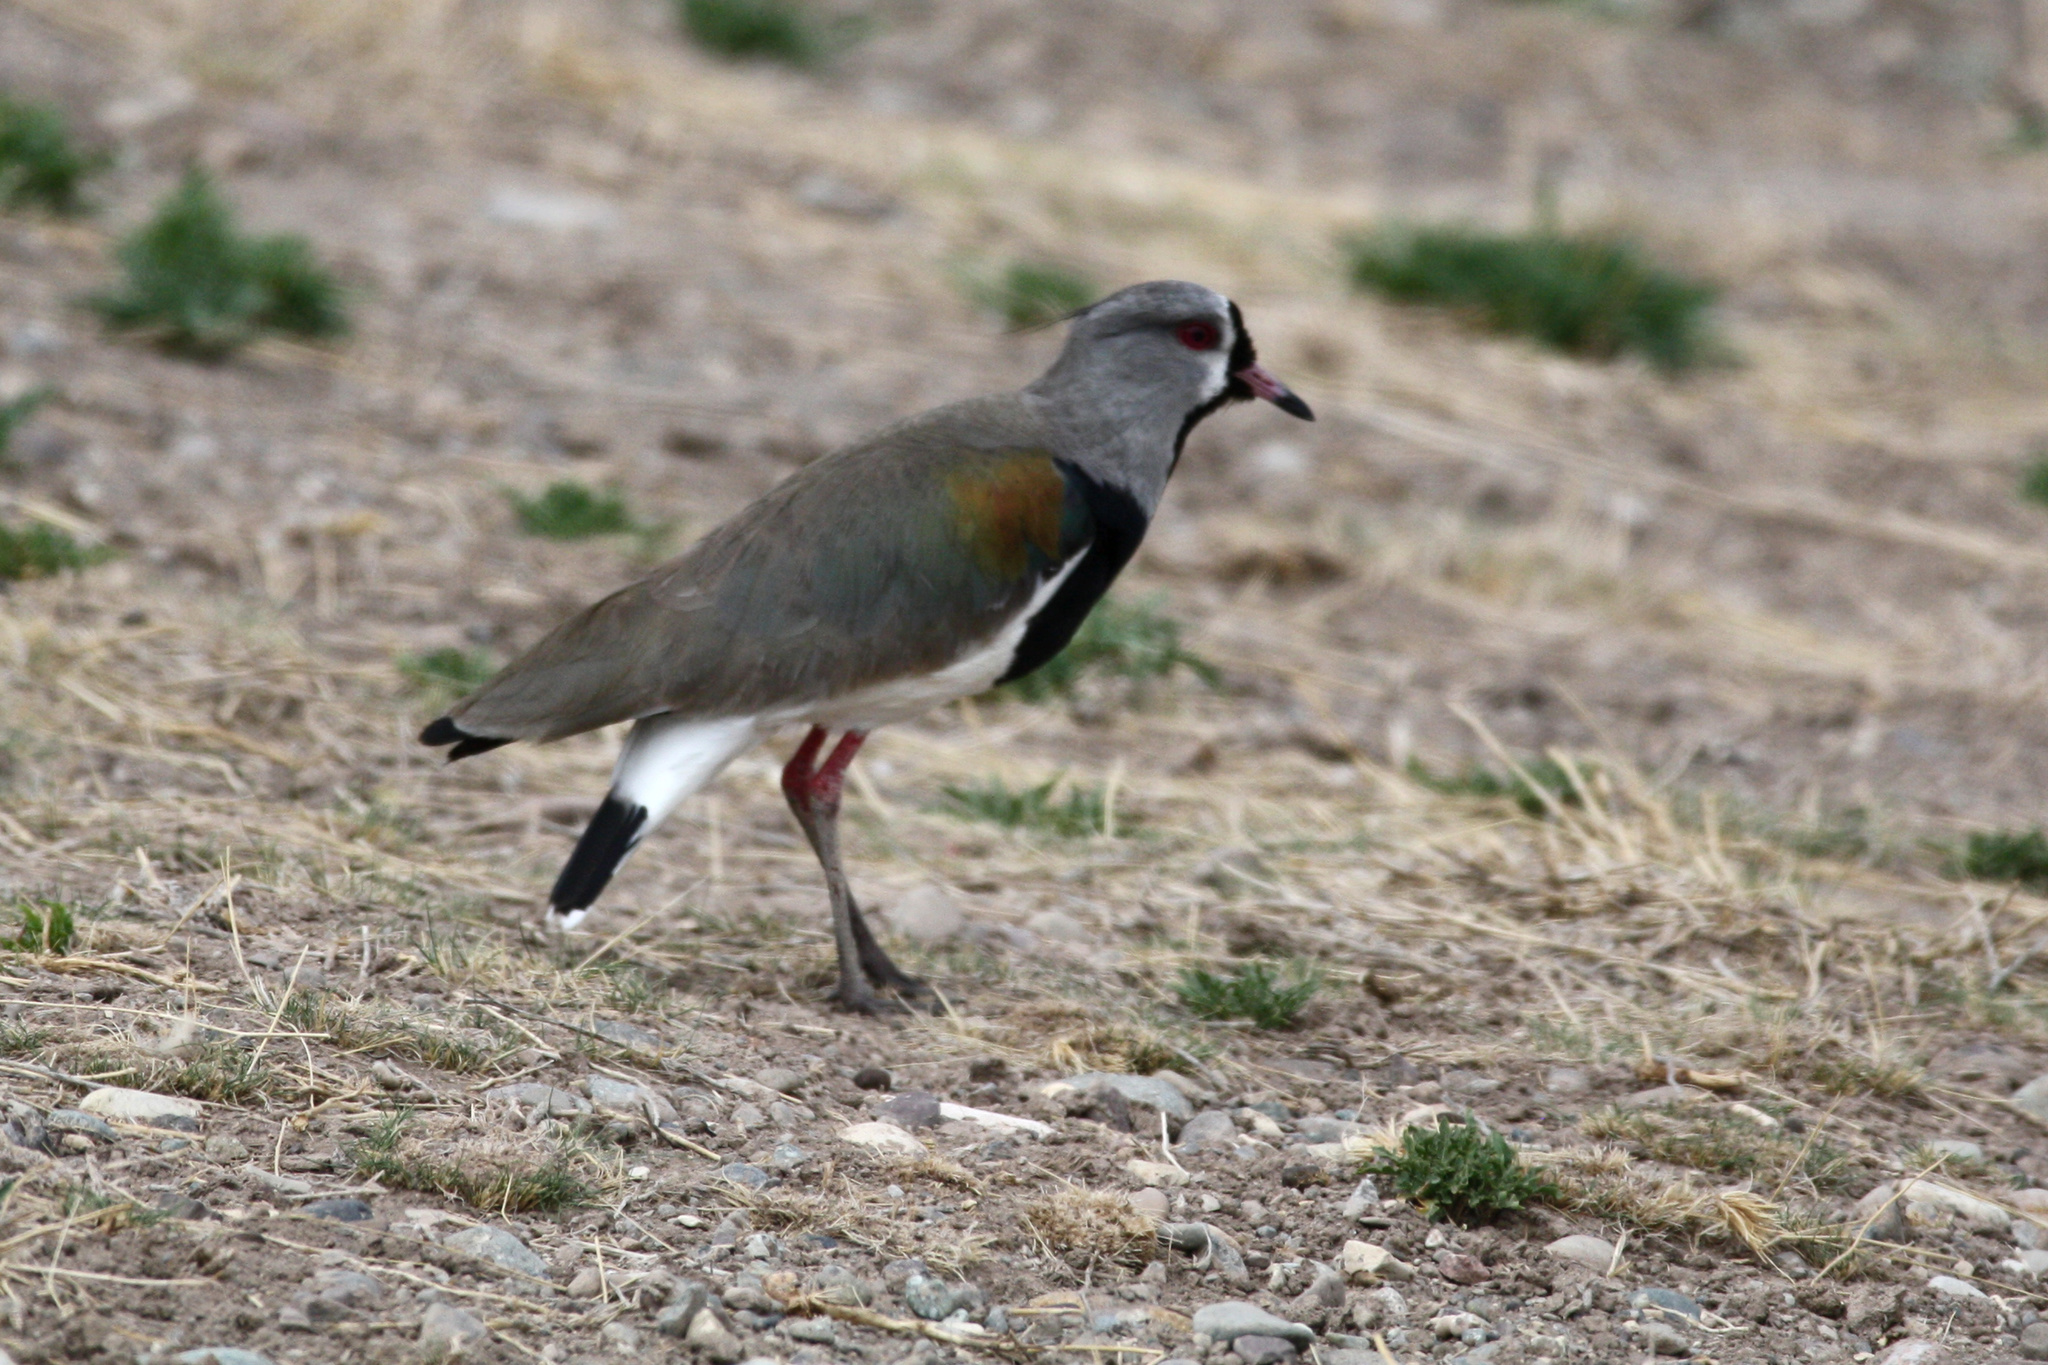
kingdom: Animalia
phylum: Chordata
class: Aves
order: Charadriiformes
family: Charadriidae
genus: Vanellus
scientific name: Vanellus chilensis
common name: Southern lapwing
